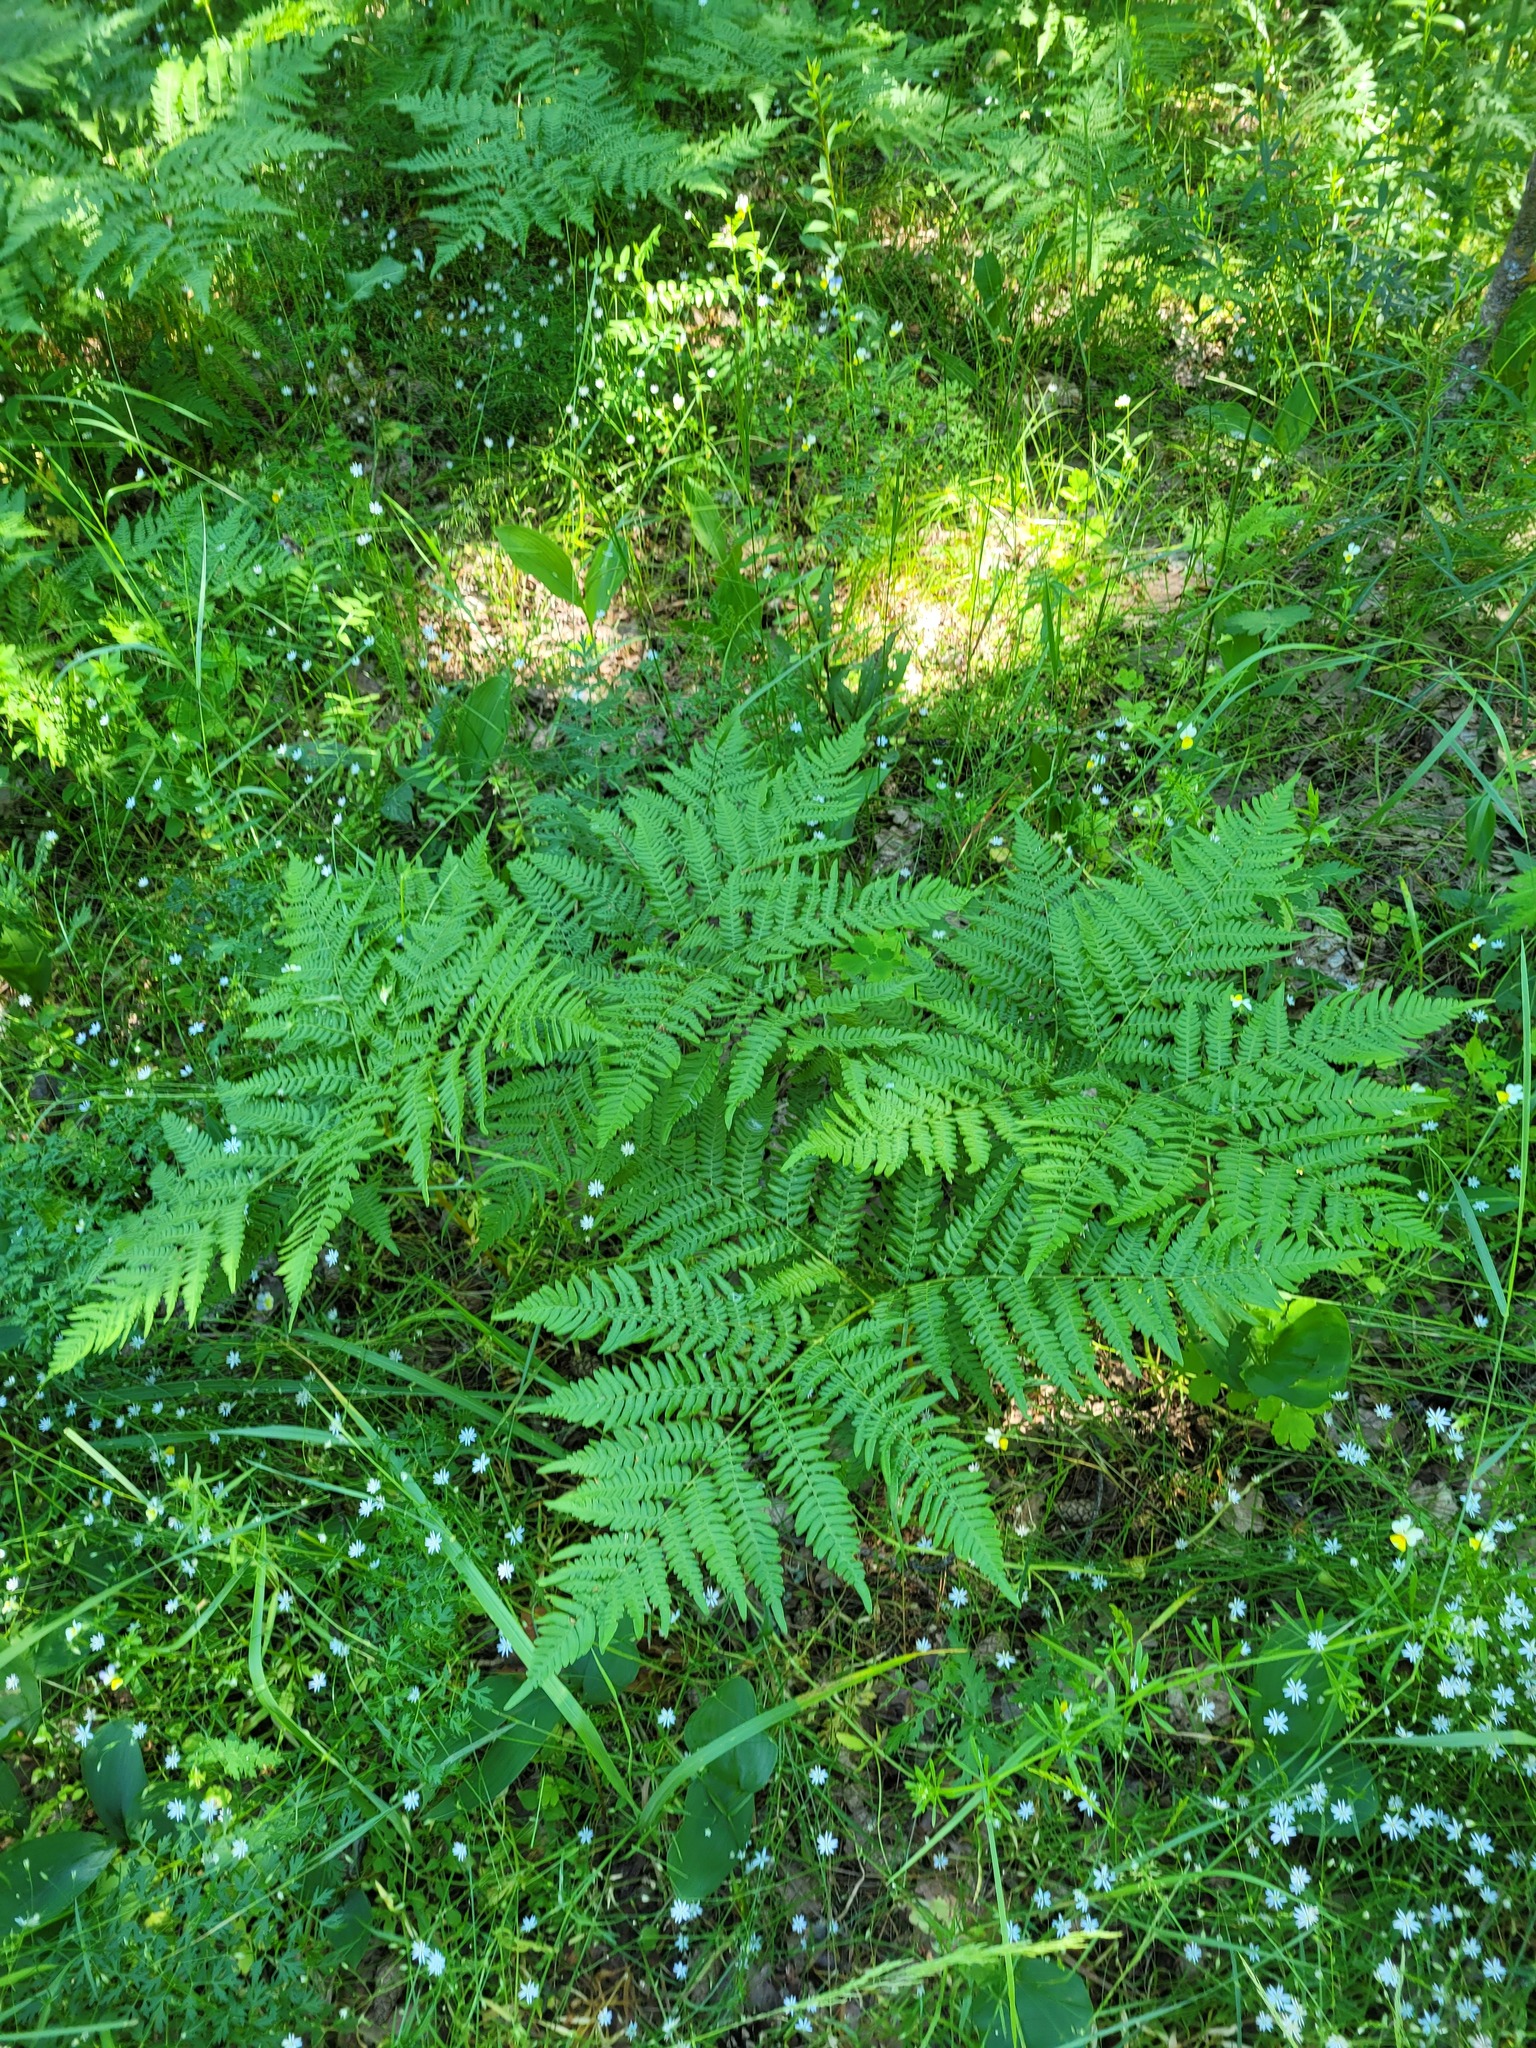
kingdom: Plantae
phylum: Tracheophyta
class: Polypodiopsida
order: Polypodiales
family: Dennstaedtiaceae
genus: Pteridium
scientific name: Pteridium aquilinum
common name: Bracken
